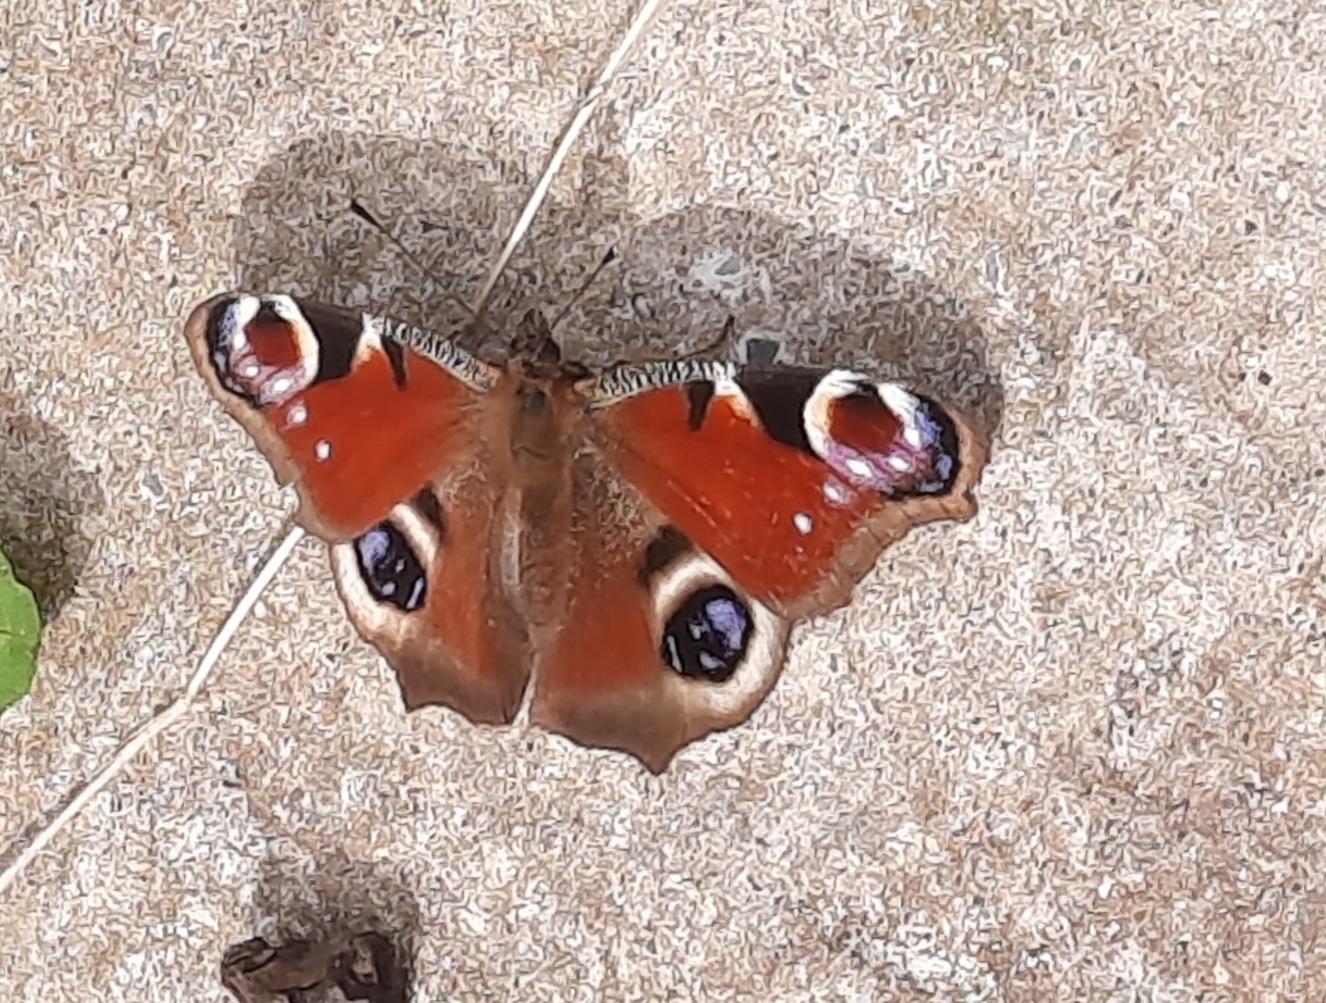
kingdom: Animalia
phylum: Arthropoda
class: Insecta
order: Lepidoptera
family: Nymphalidae
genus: Aglais
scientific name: Aglais io
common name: Peacock
